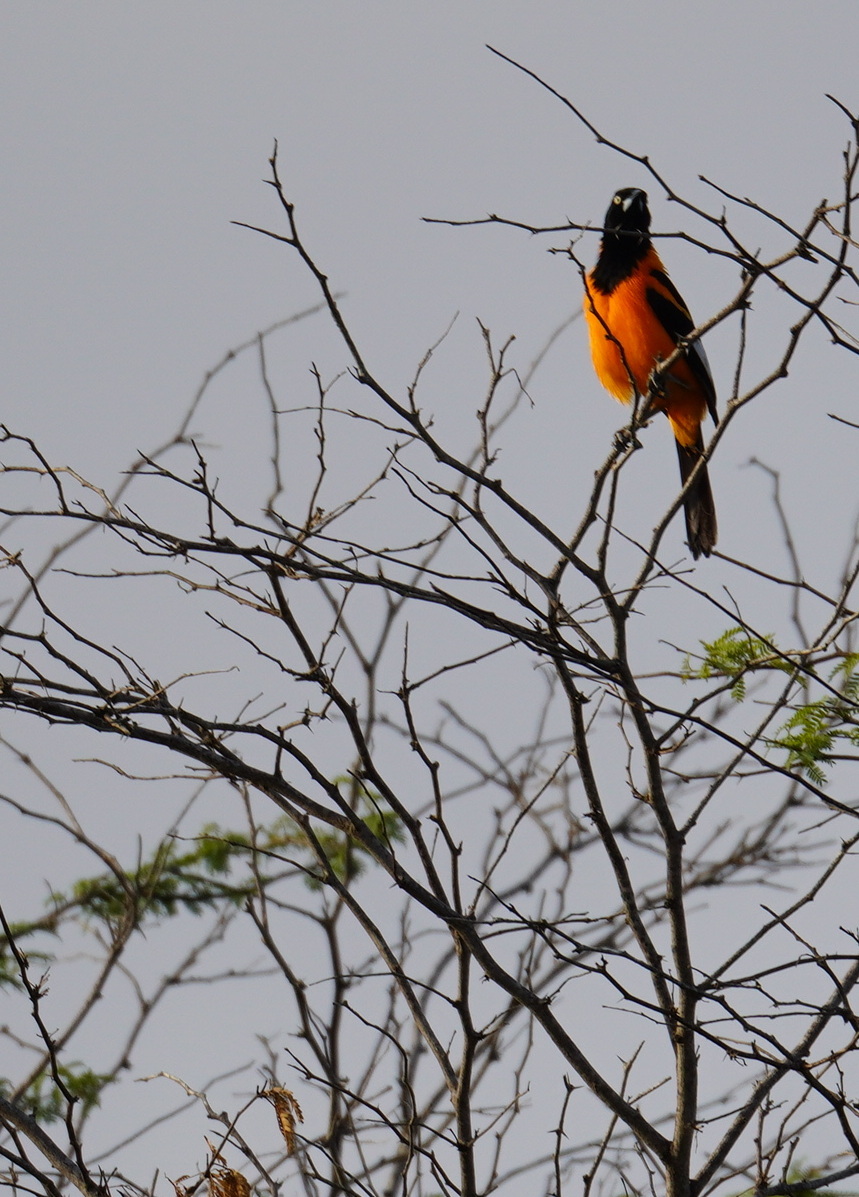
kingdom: Animalia
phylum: Chordata
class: Aves
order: Passeriformes
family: Icteridae
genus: Icterus
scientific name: Icterus icterus
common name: Venezuelan troupial
